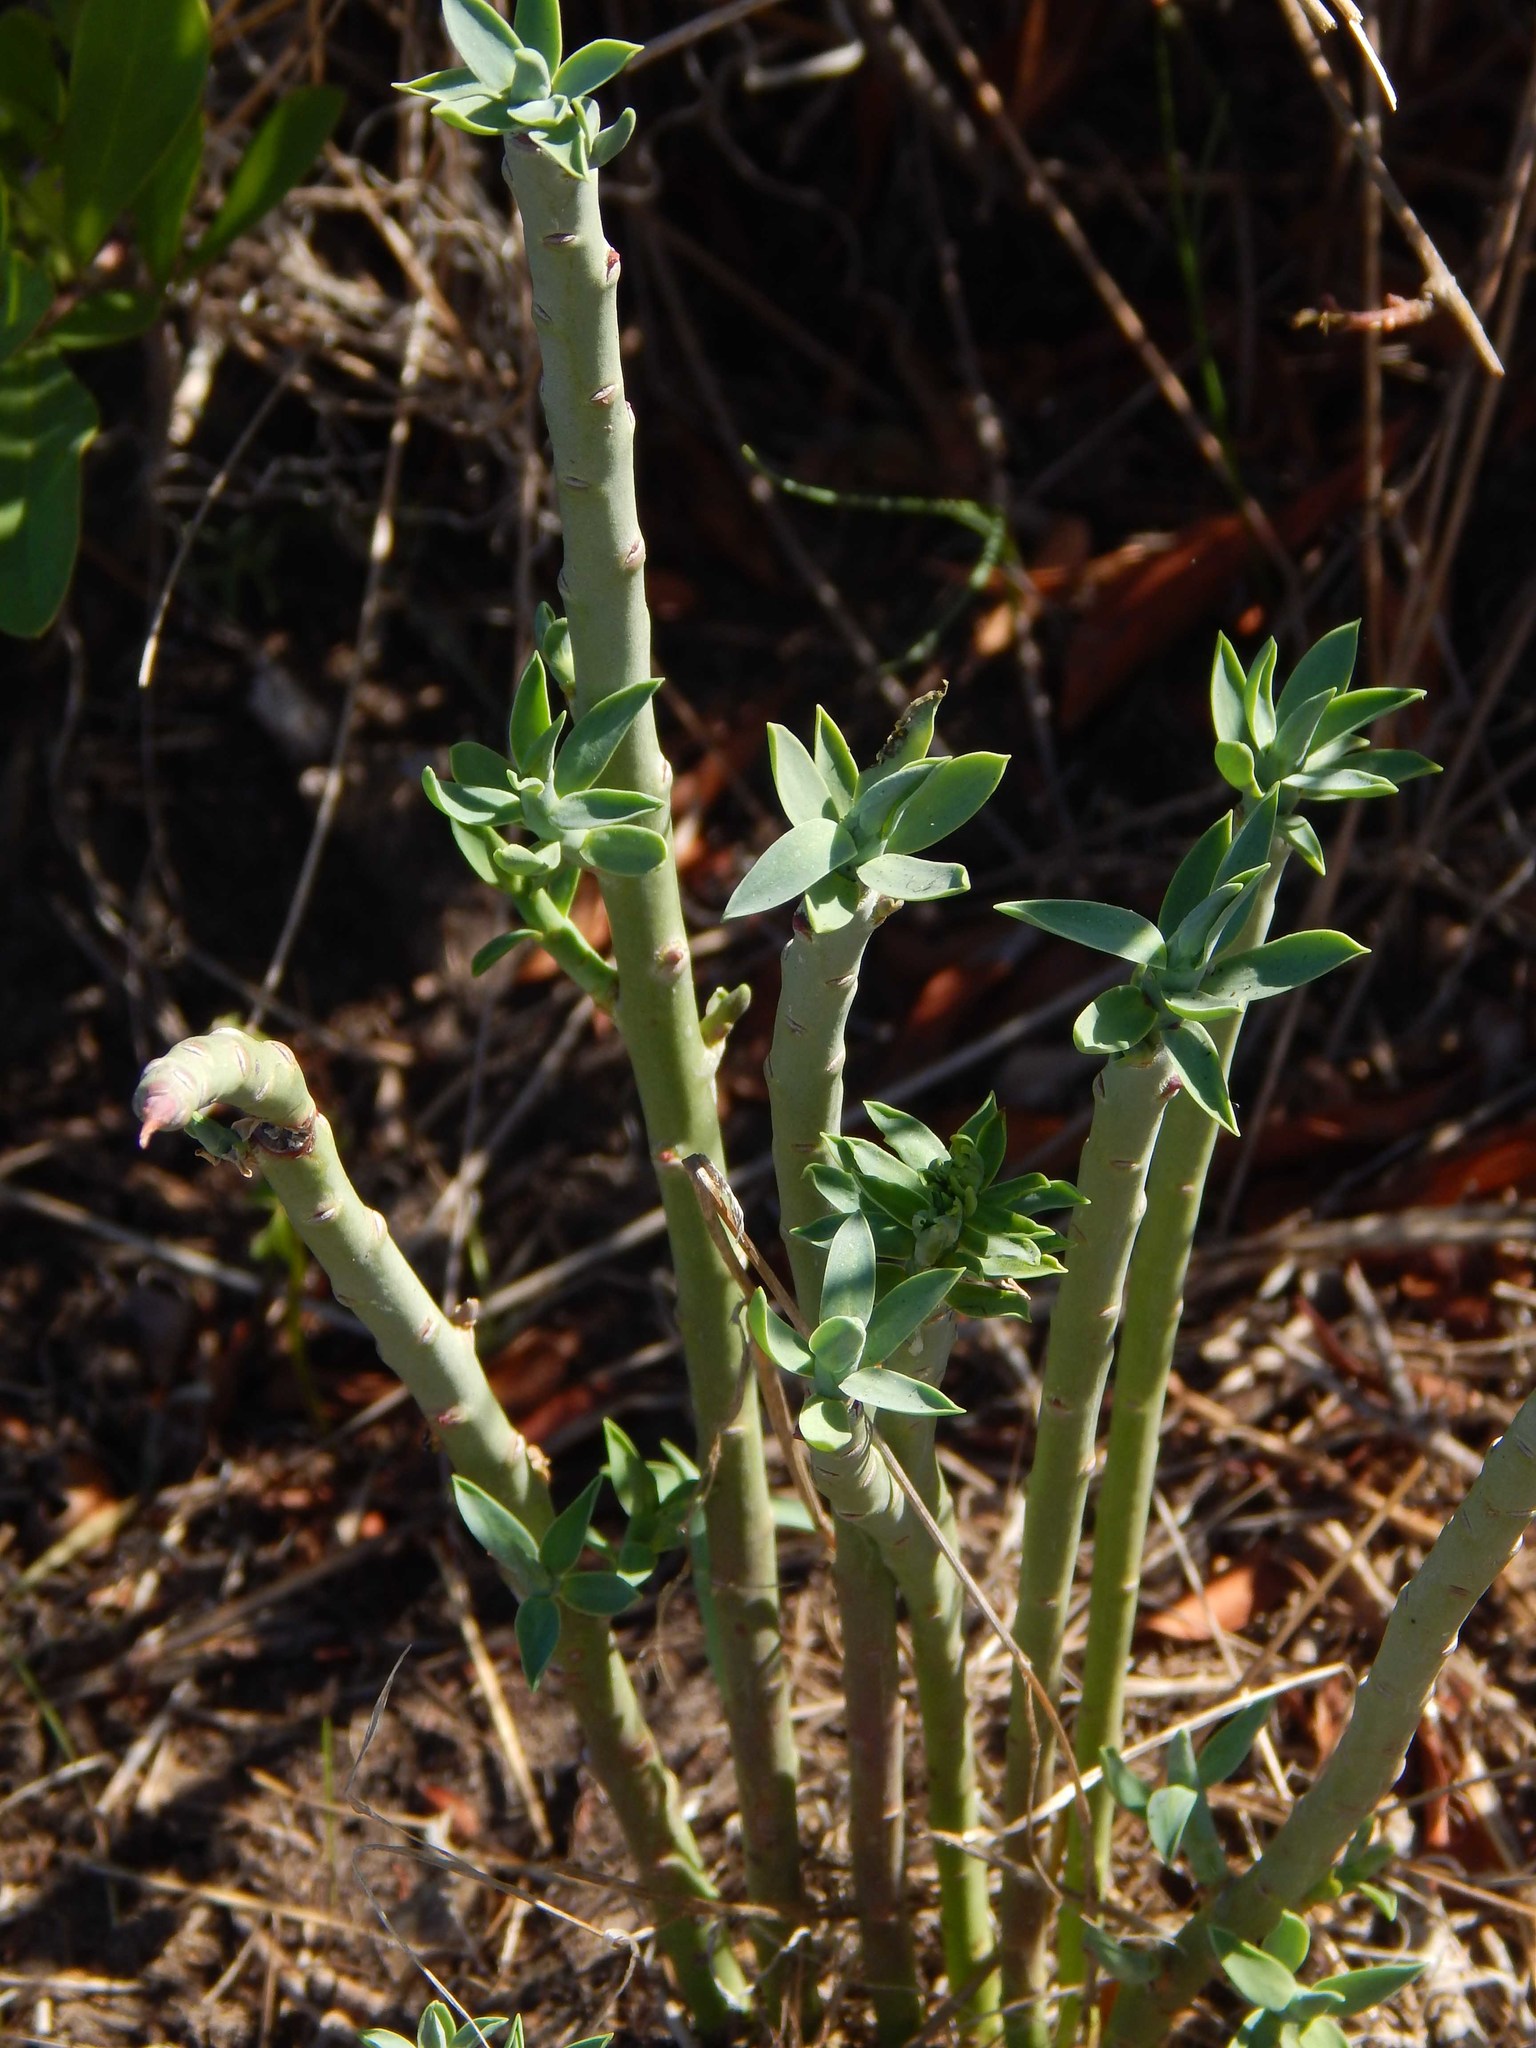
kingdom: Plantae
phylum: Tracheophyta
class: Magnoliopsida
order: Malpighiales
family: Euphorbiaceae
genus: Euphorbia
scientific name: Euphorbia mauritanica
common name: Jackal's-food
